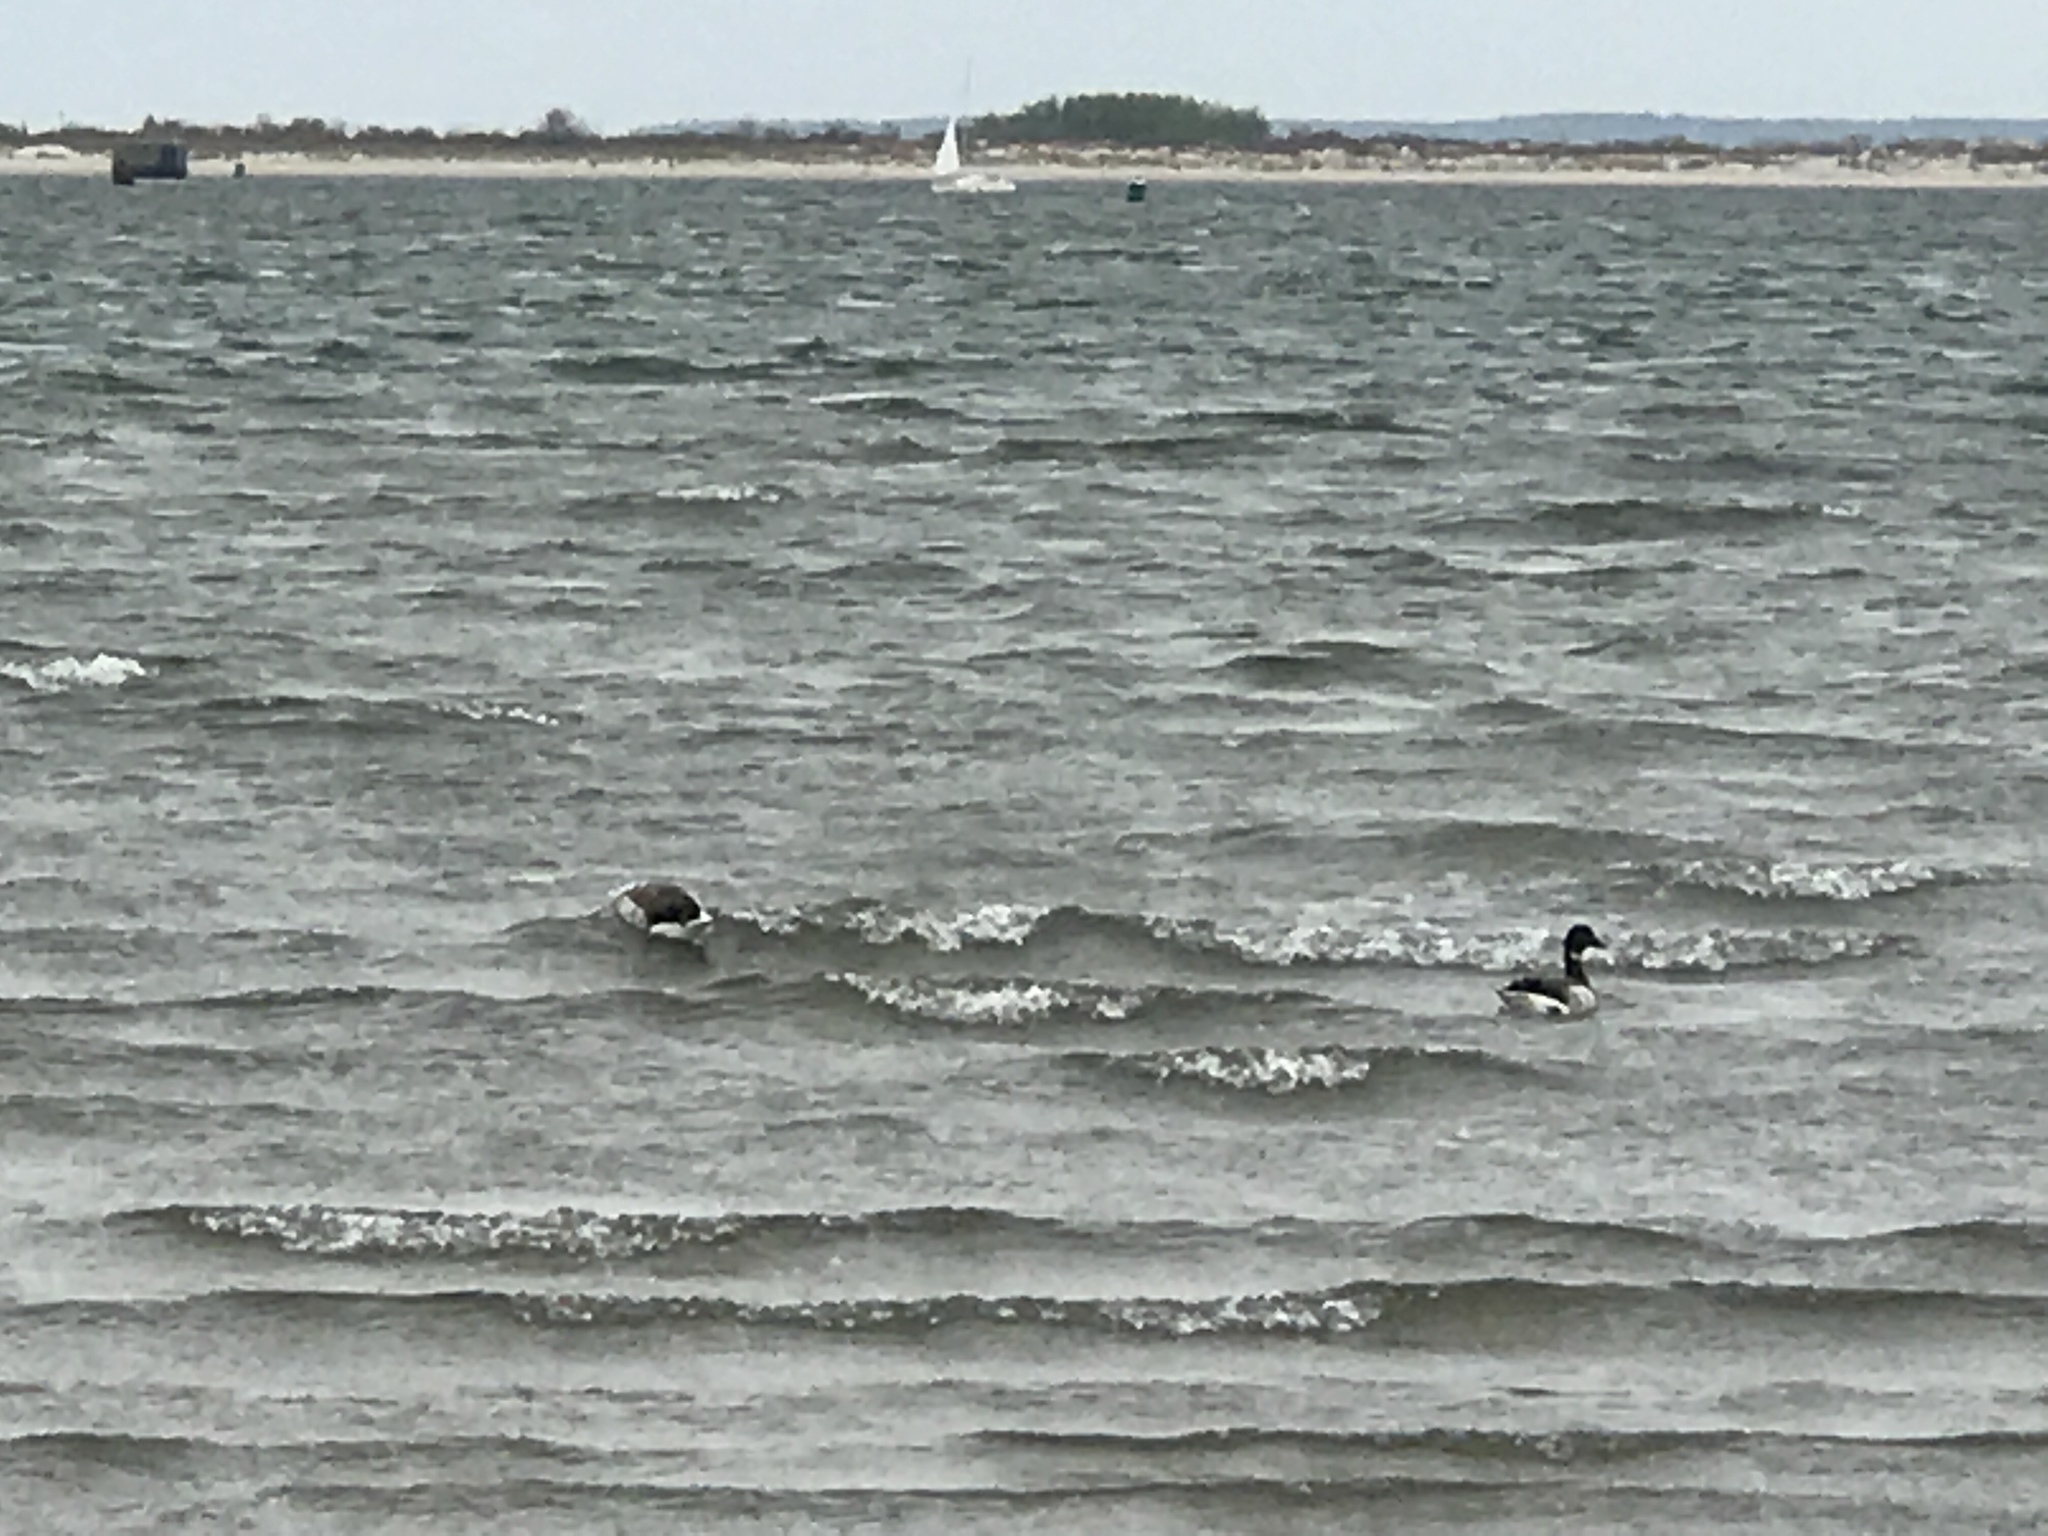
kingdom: Animalia
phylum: Chordata
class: Aves
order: Anseriformes
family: Anatidae
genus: Branta
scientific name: Branta bernicla
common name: Brant goose
